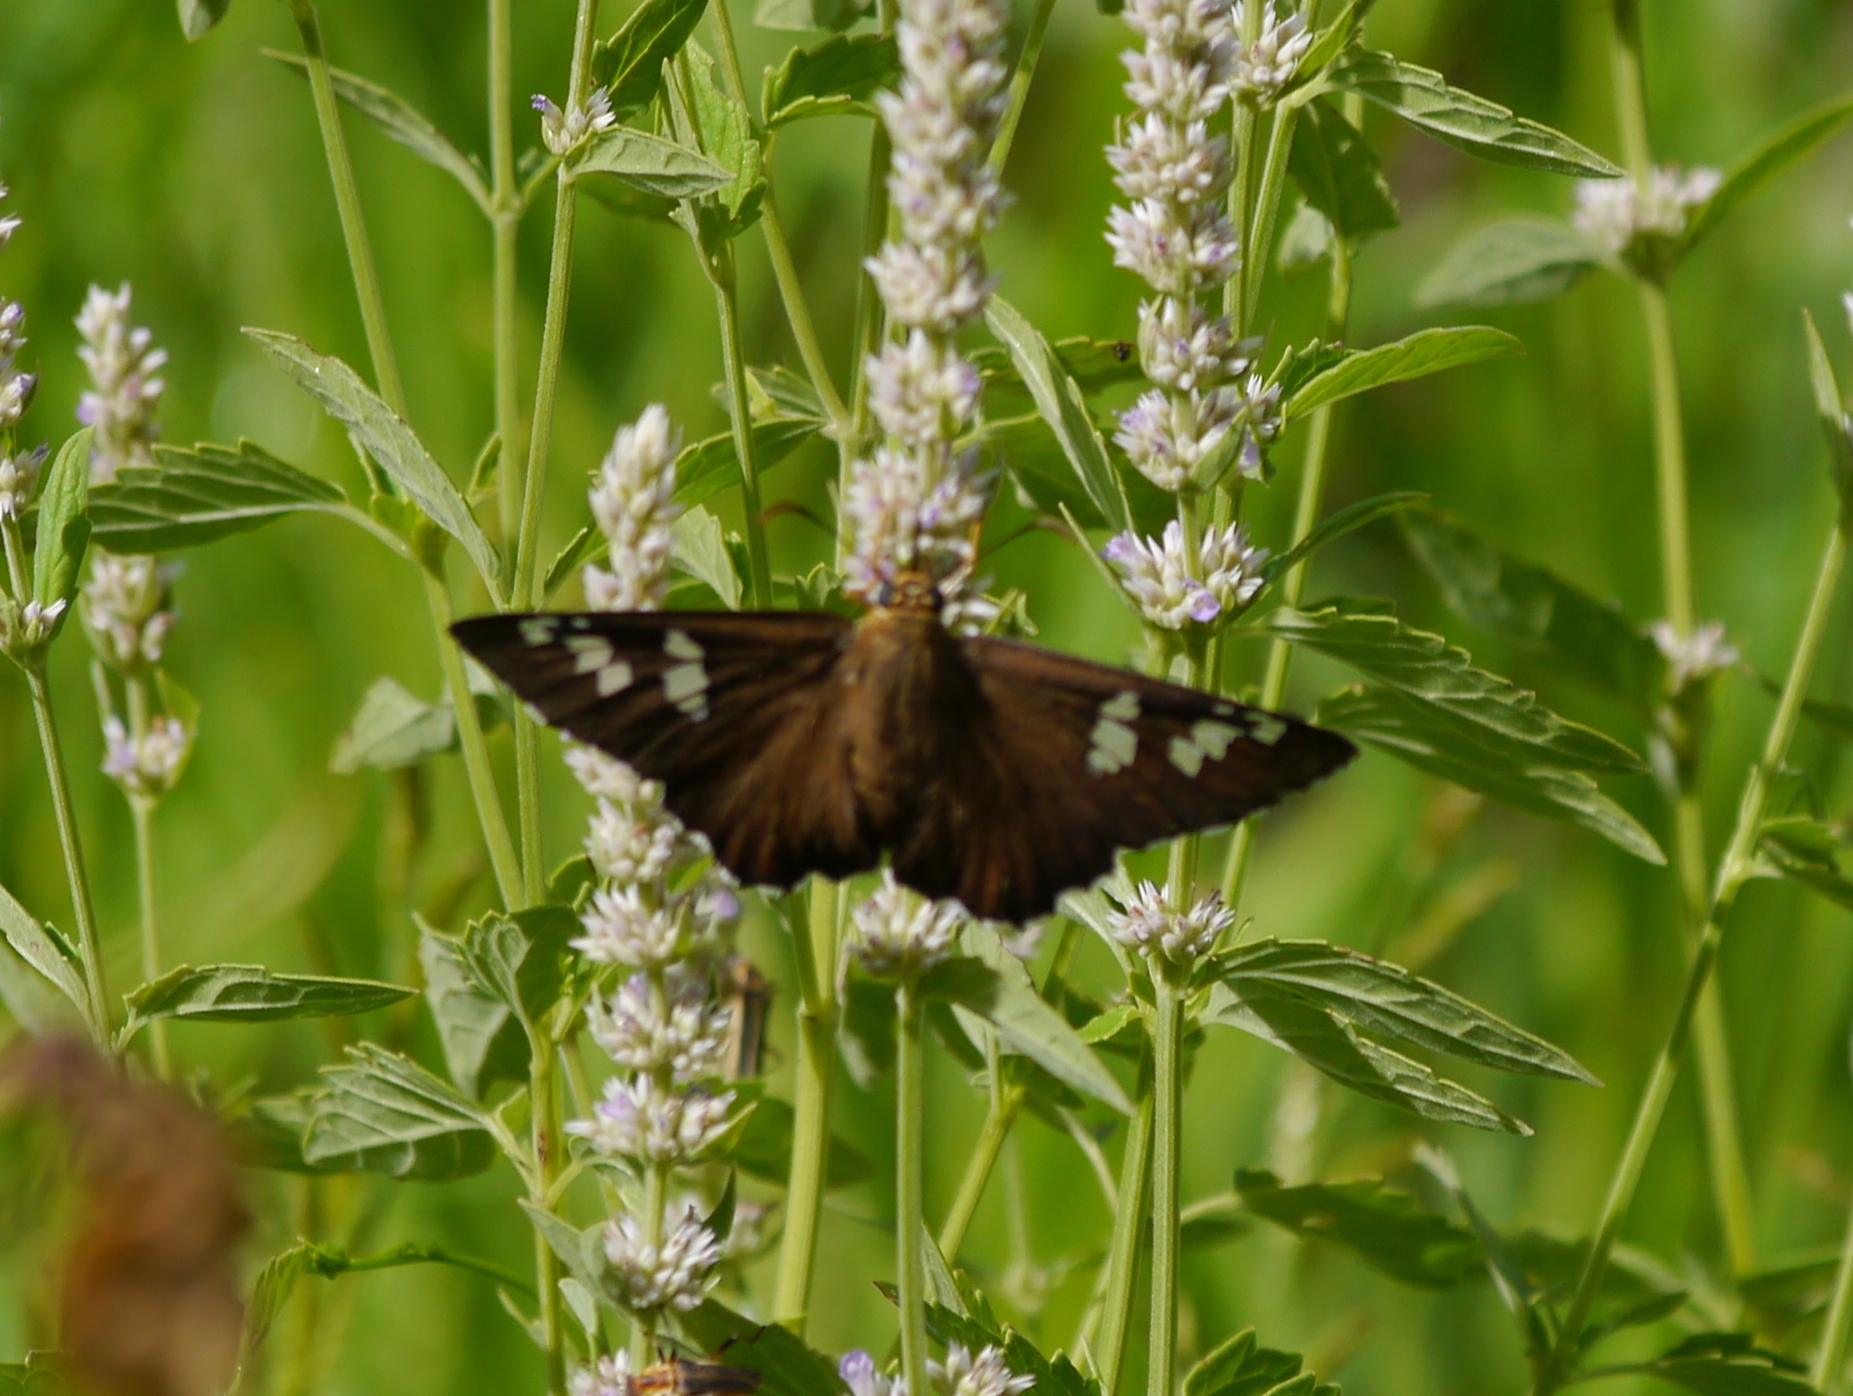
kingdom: Animalia
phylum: Arthropoda
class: Insecta
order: Lepidoptera
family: Hesperiidae
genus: Pyrrhopyge
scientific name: Pyrrhopyge araxes
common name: Dull firetip
